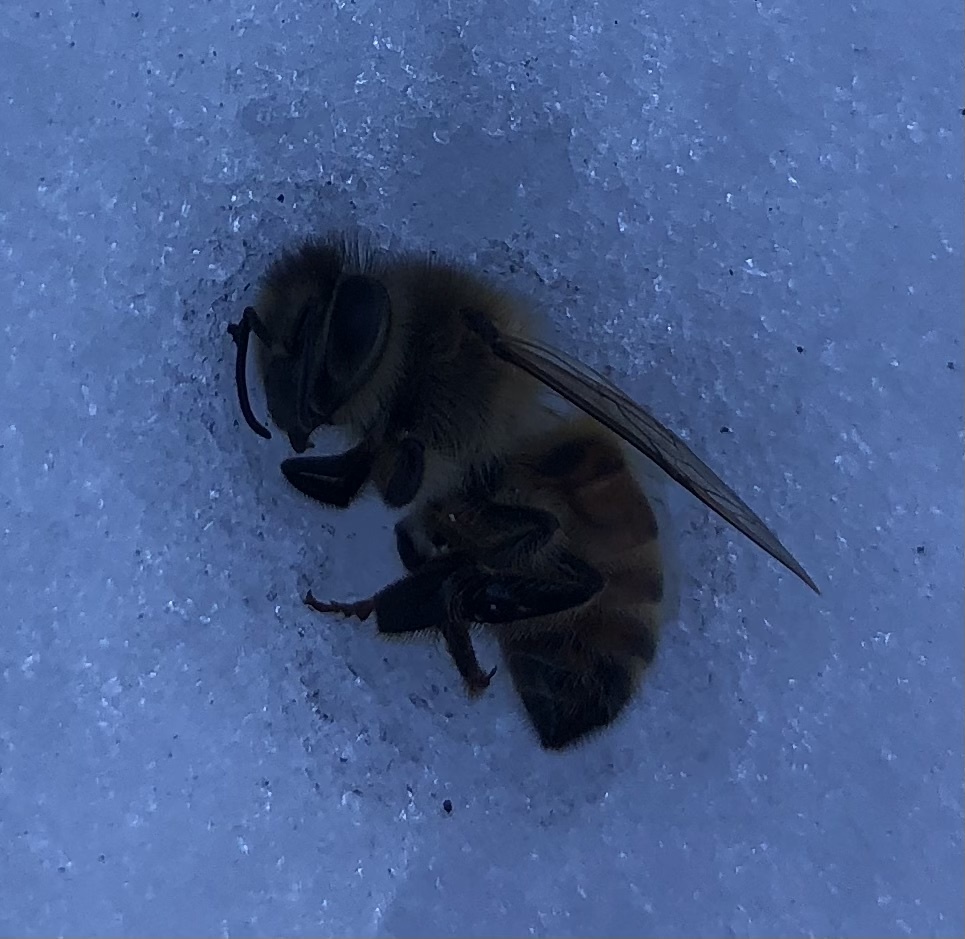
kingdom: Animalia
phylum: Arthropoda
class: Insecta
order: Hymenoptera
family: Apidae
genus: Apis
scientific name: Apis mellifera
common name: Honey bee
